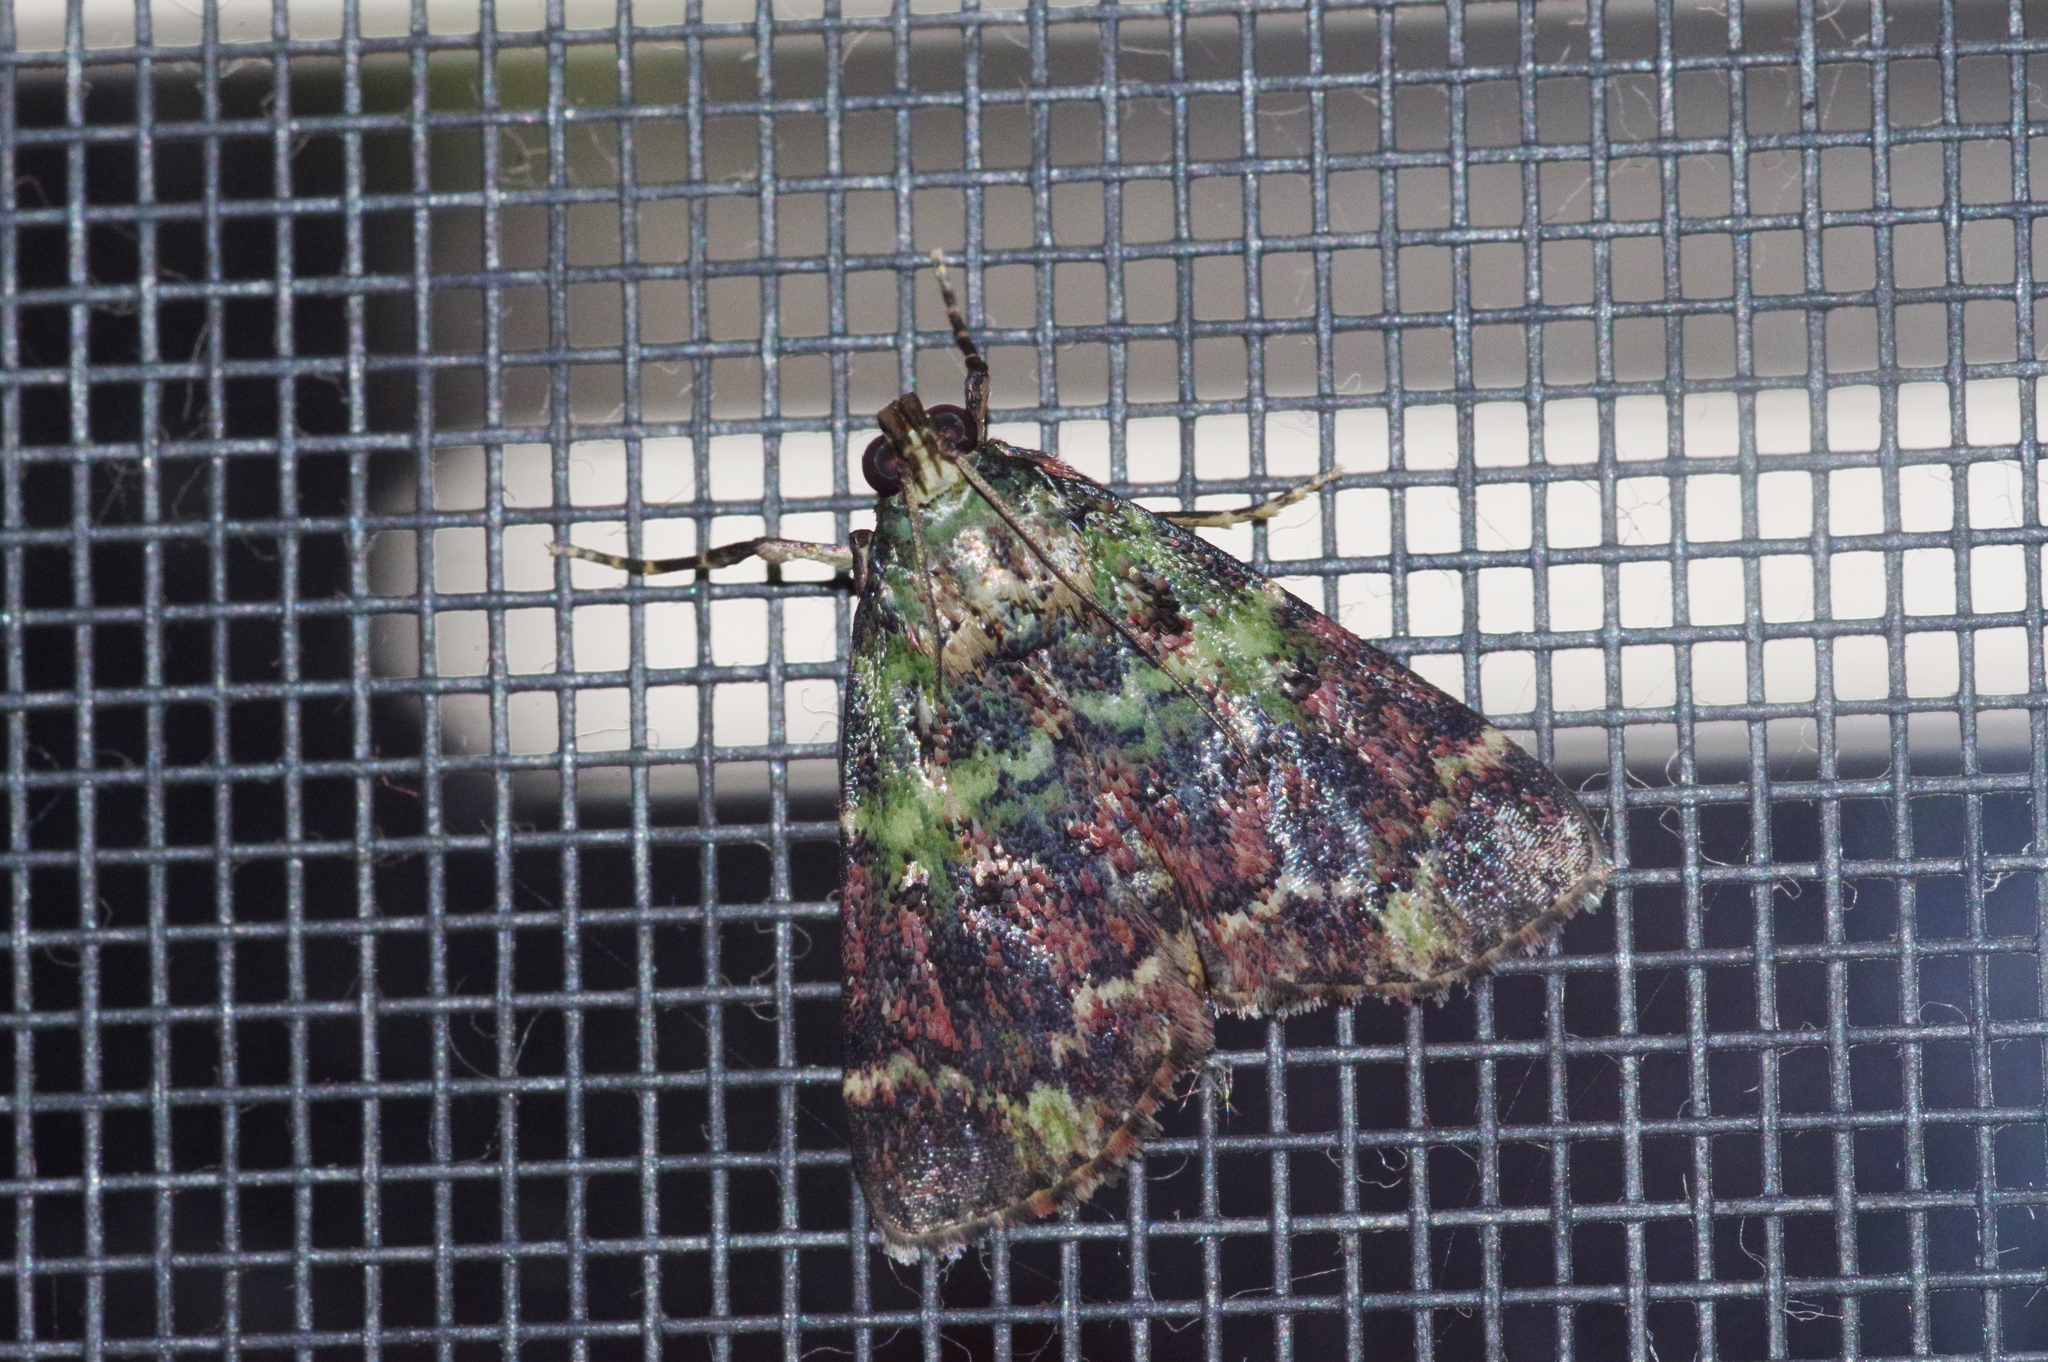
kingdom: Animalia
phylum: Arthropoda
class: Insecta
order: Lepidoptera
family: Pyralidae
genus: Orthaga
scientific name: Orthaga olivacea
